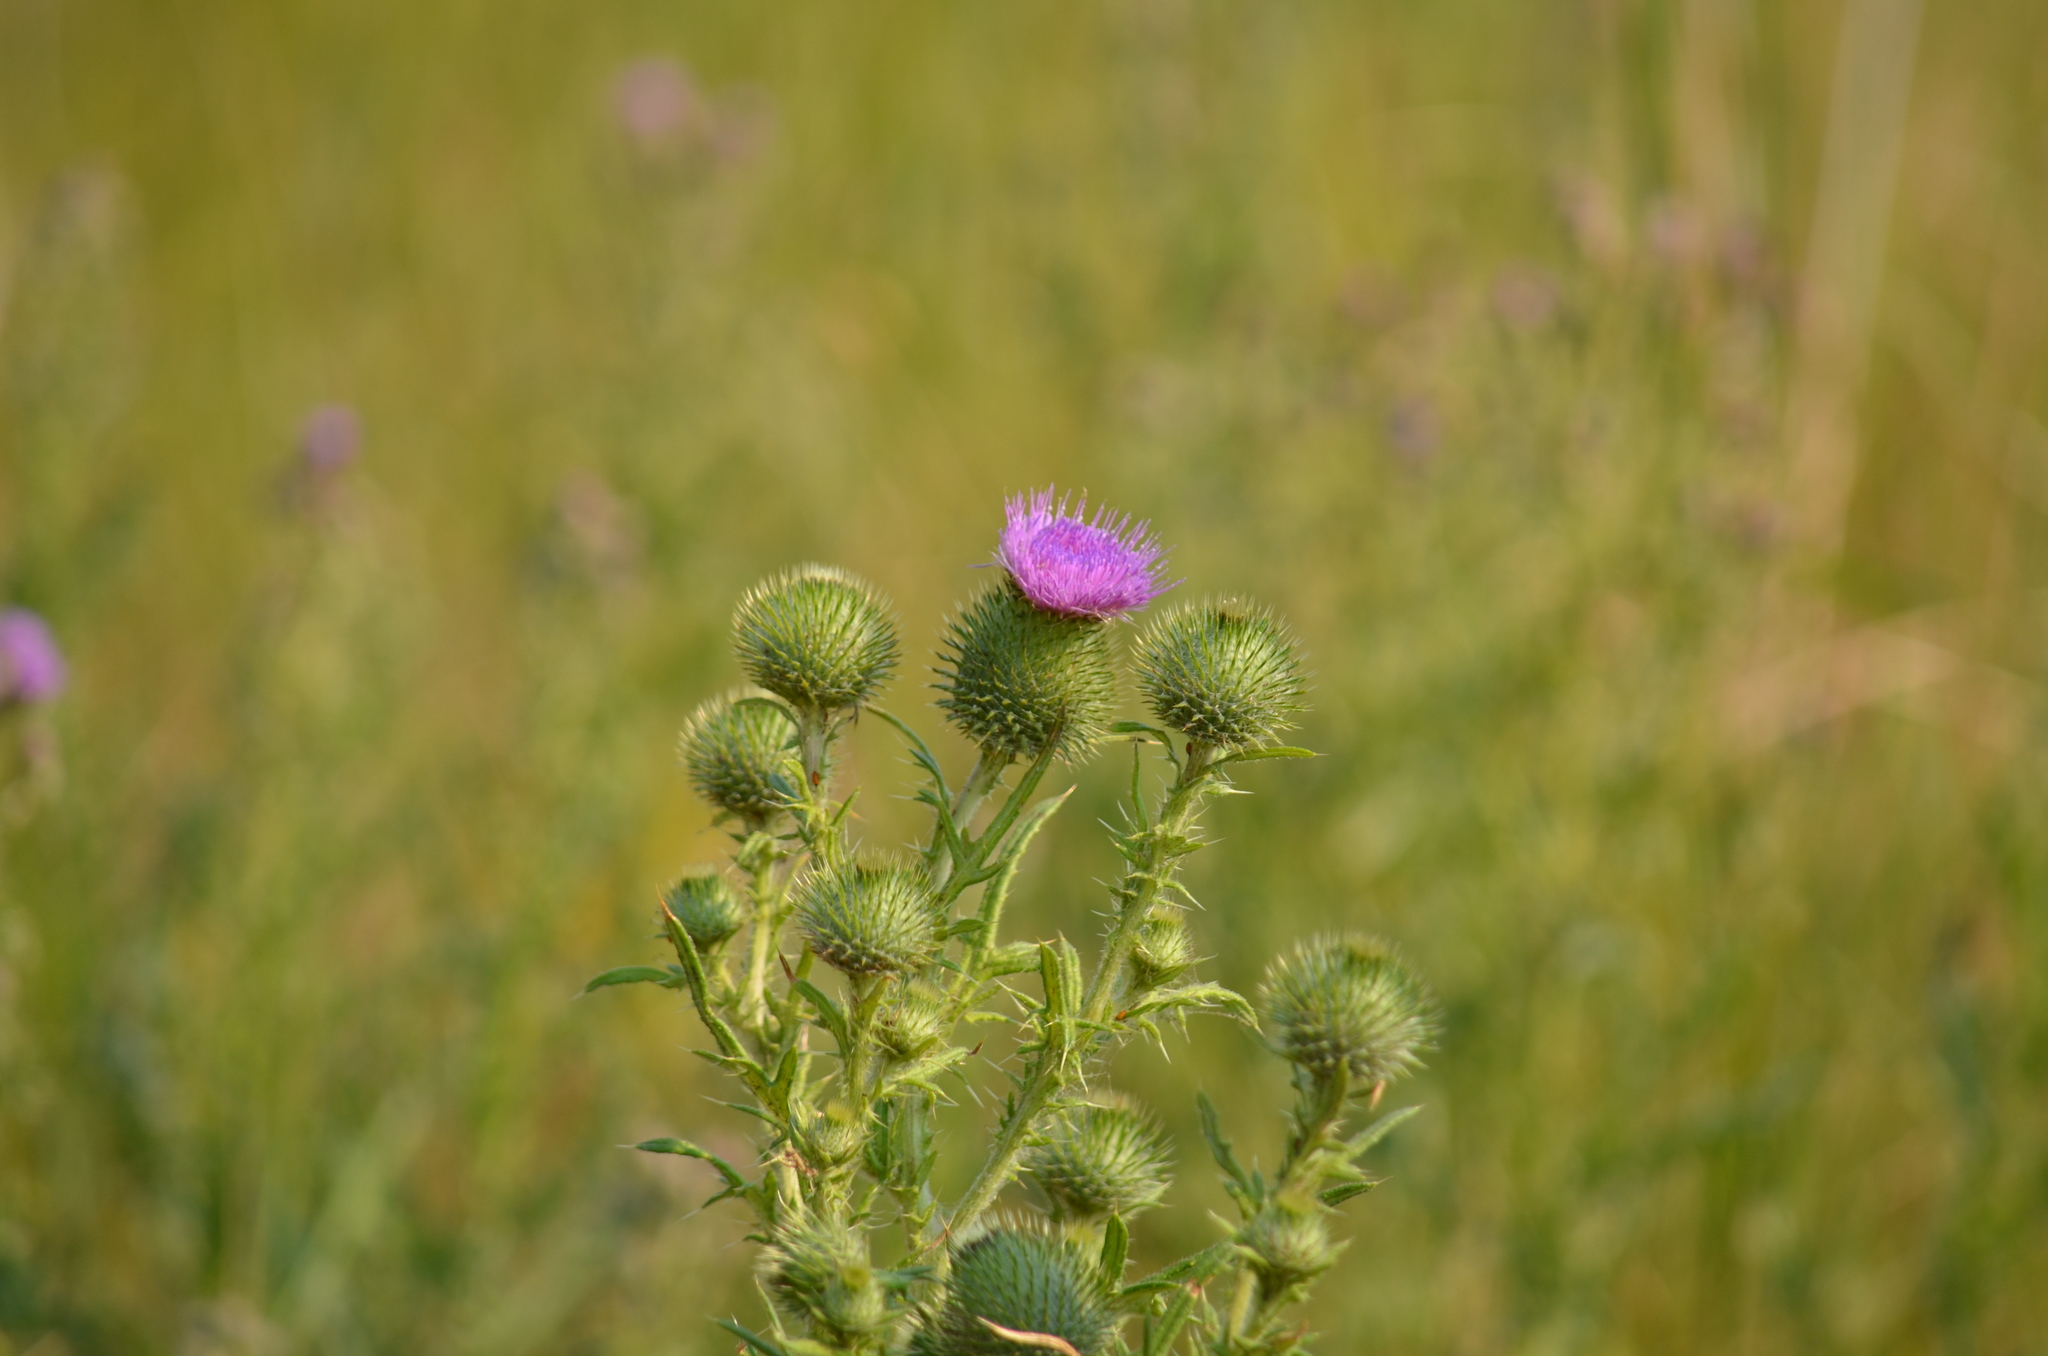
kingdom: Plantae
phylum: Tracheophyta
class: Magnoliopsida
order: Asterales
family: Asteraceae
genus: Cirsium
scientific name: Cirsium vulgare
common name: Bull thistle
